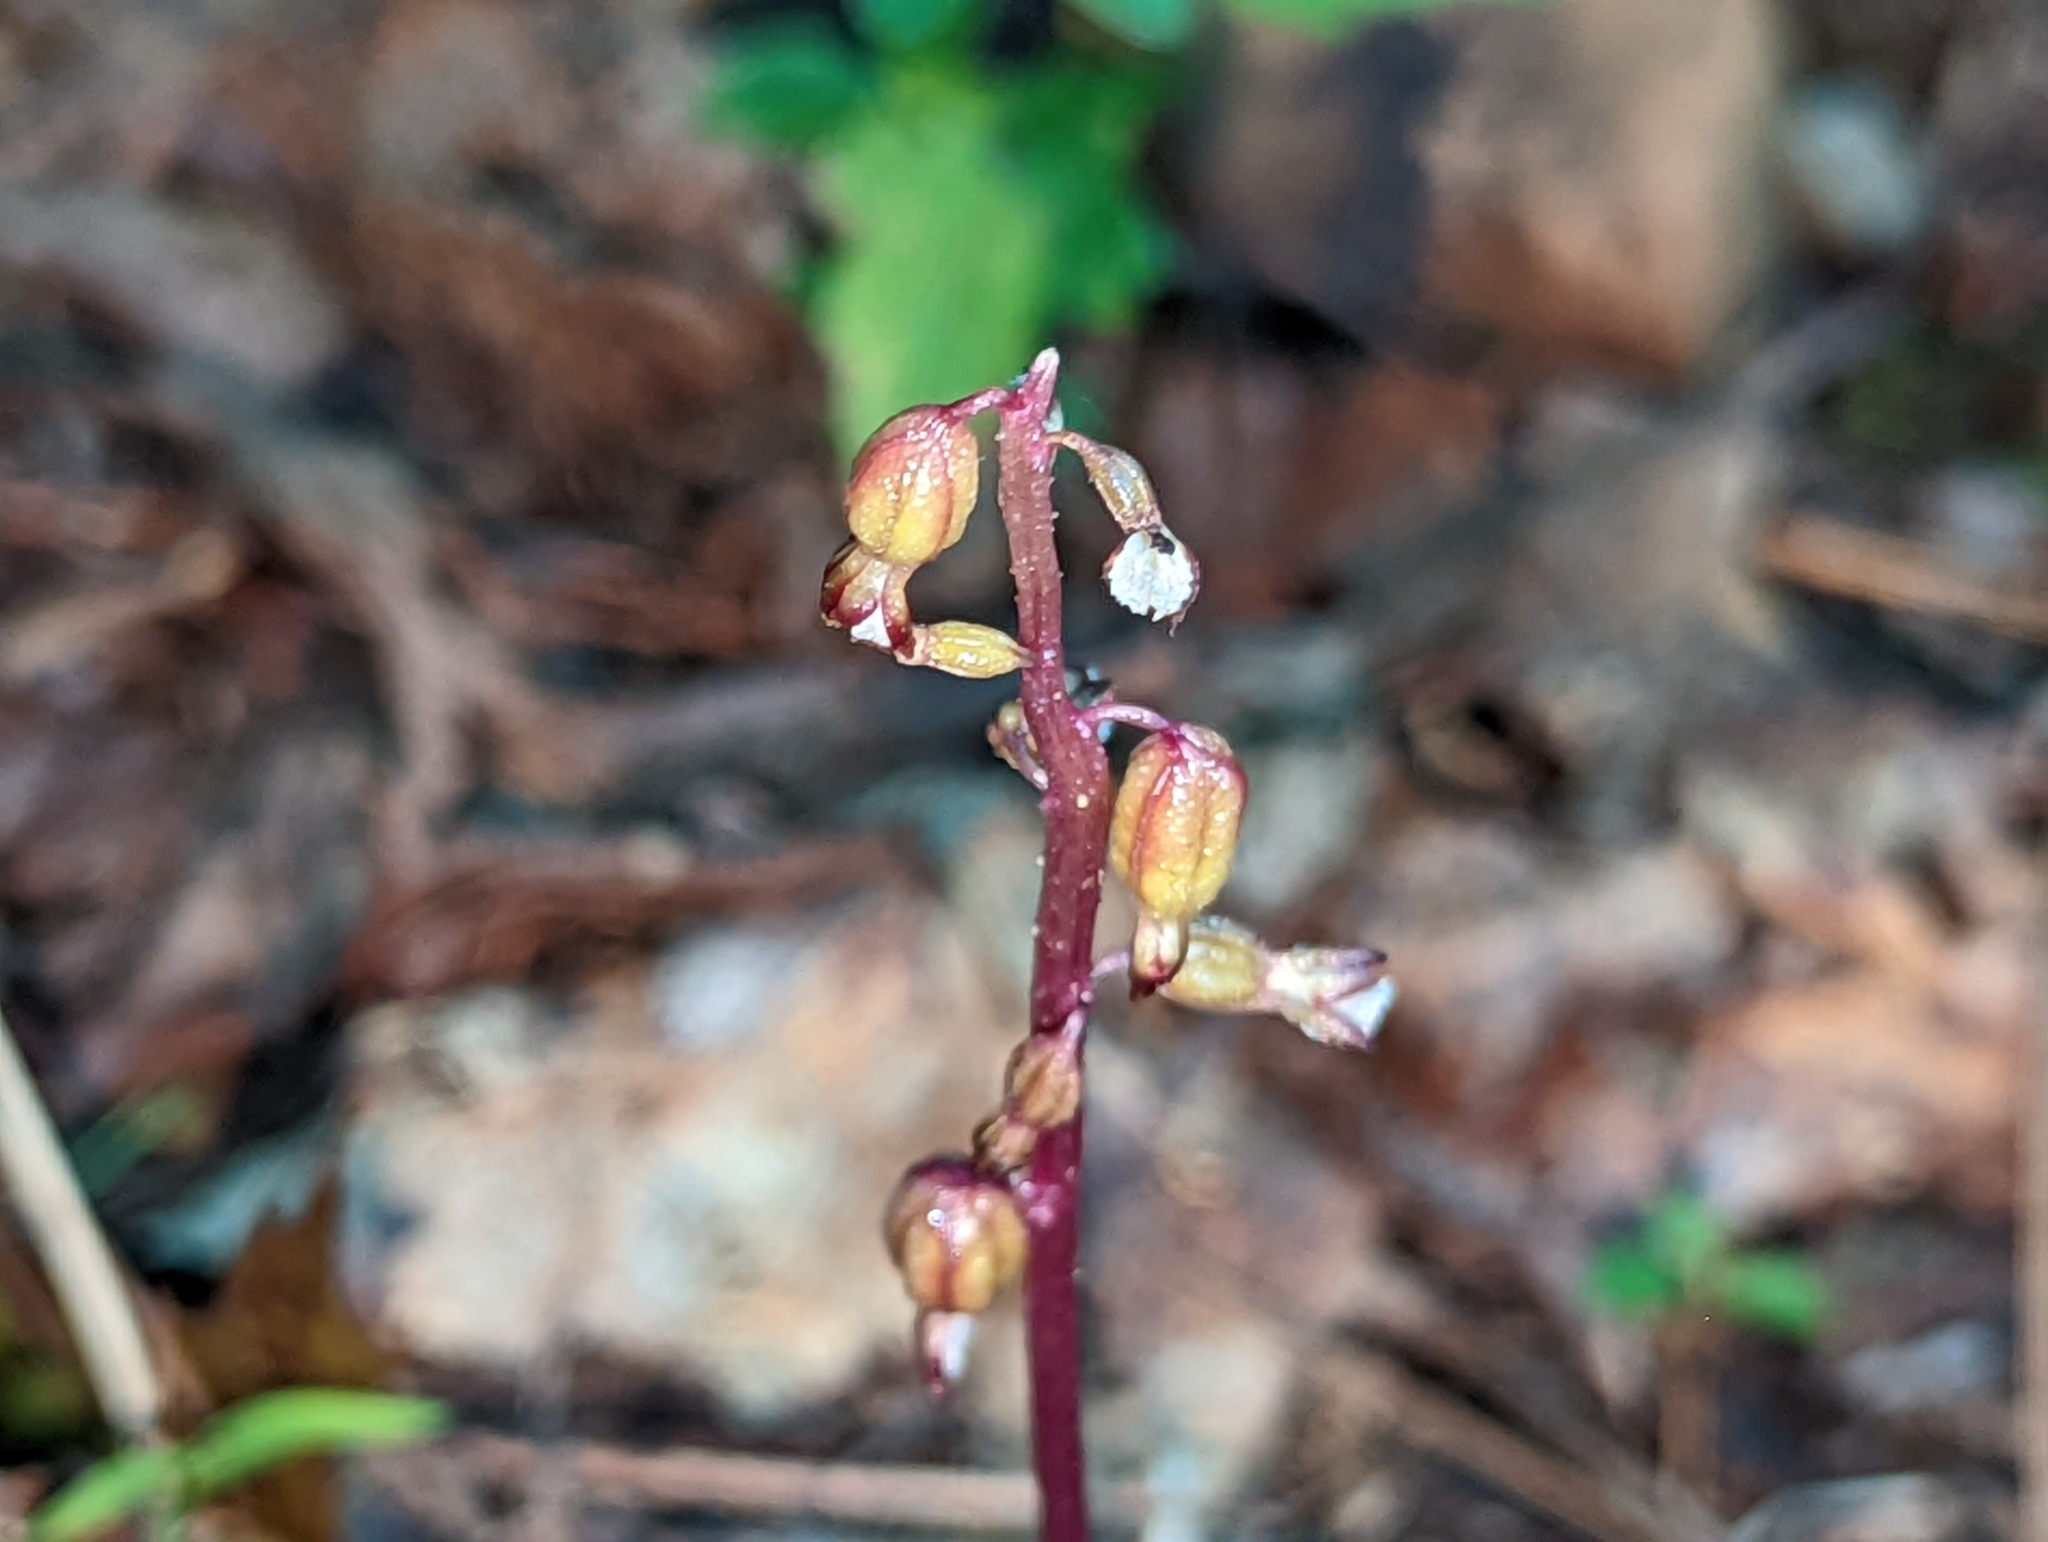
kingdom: Plantae
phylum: Tracheophyta
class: Liliopsida
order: Asparagales
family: Orchidaceae
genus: Corallorhiza
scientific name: Corallorhiza odontorhiza
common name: Autumn coralroot
